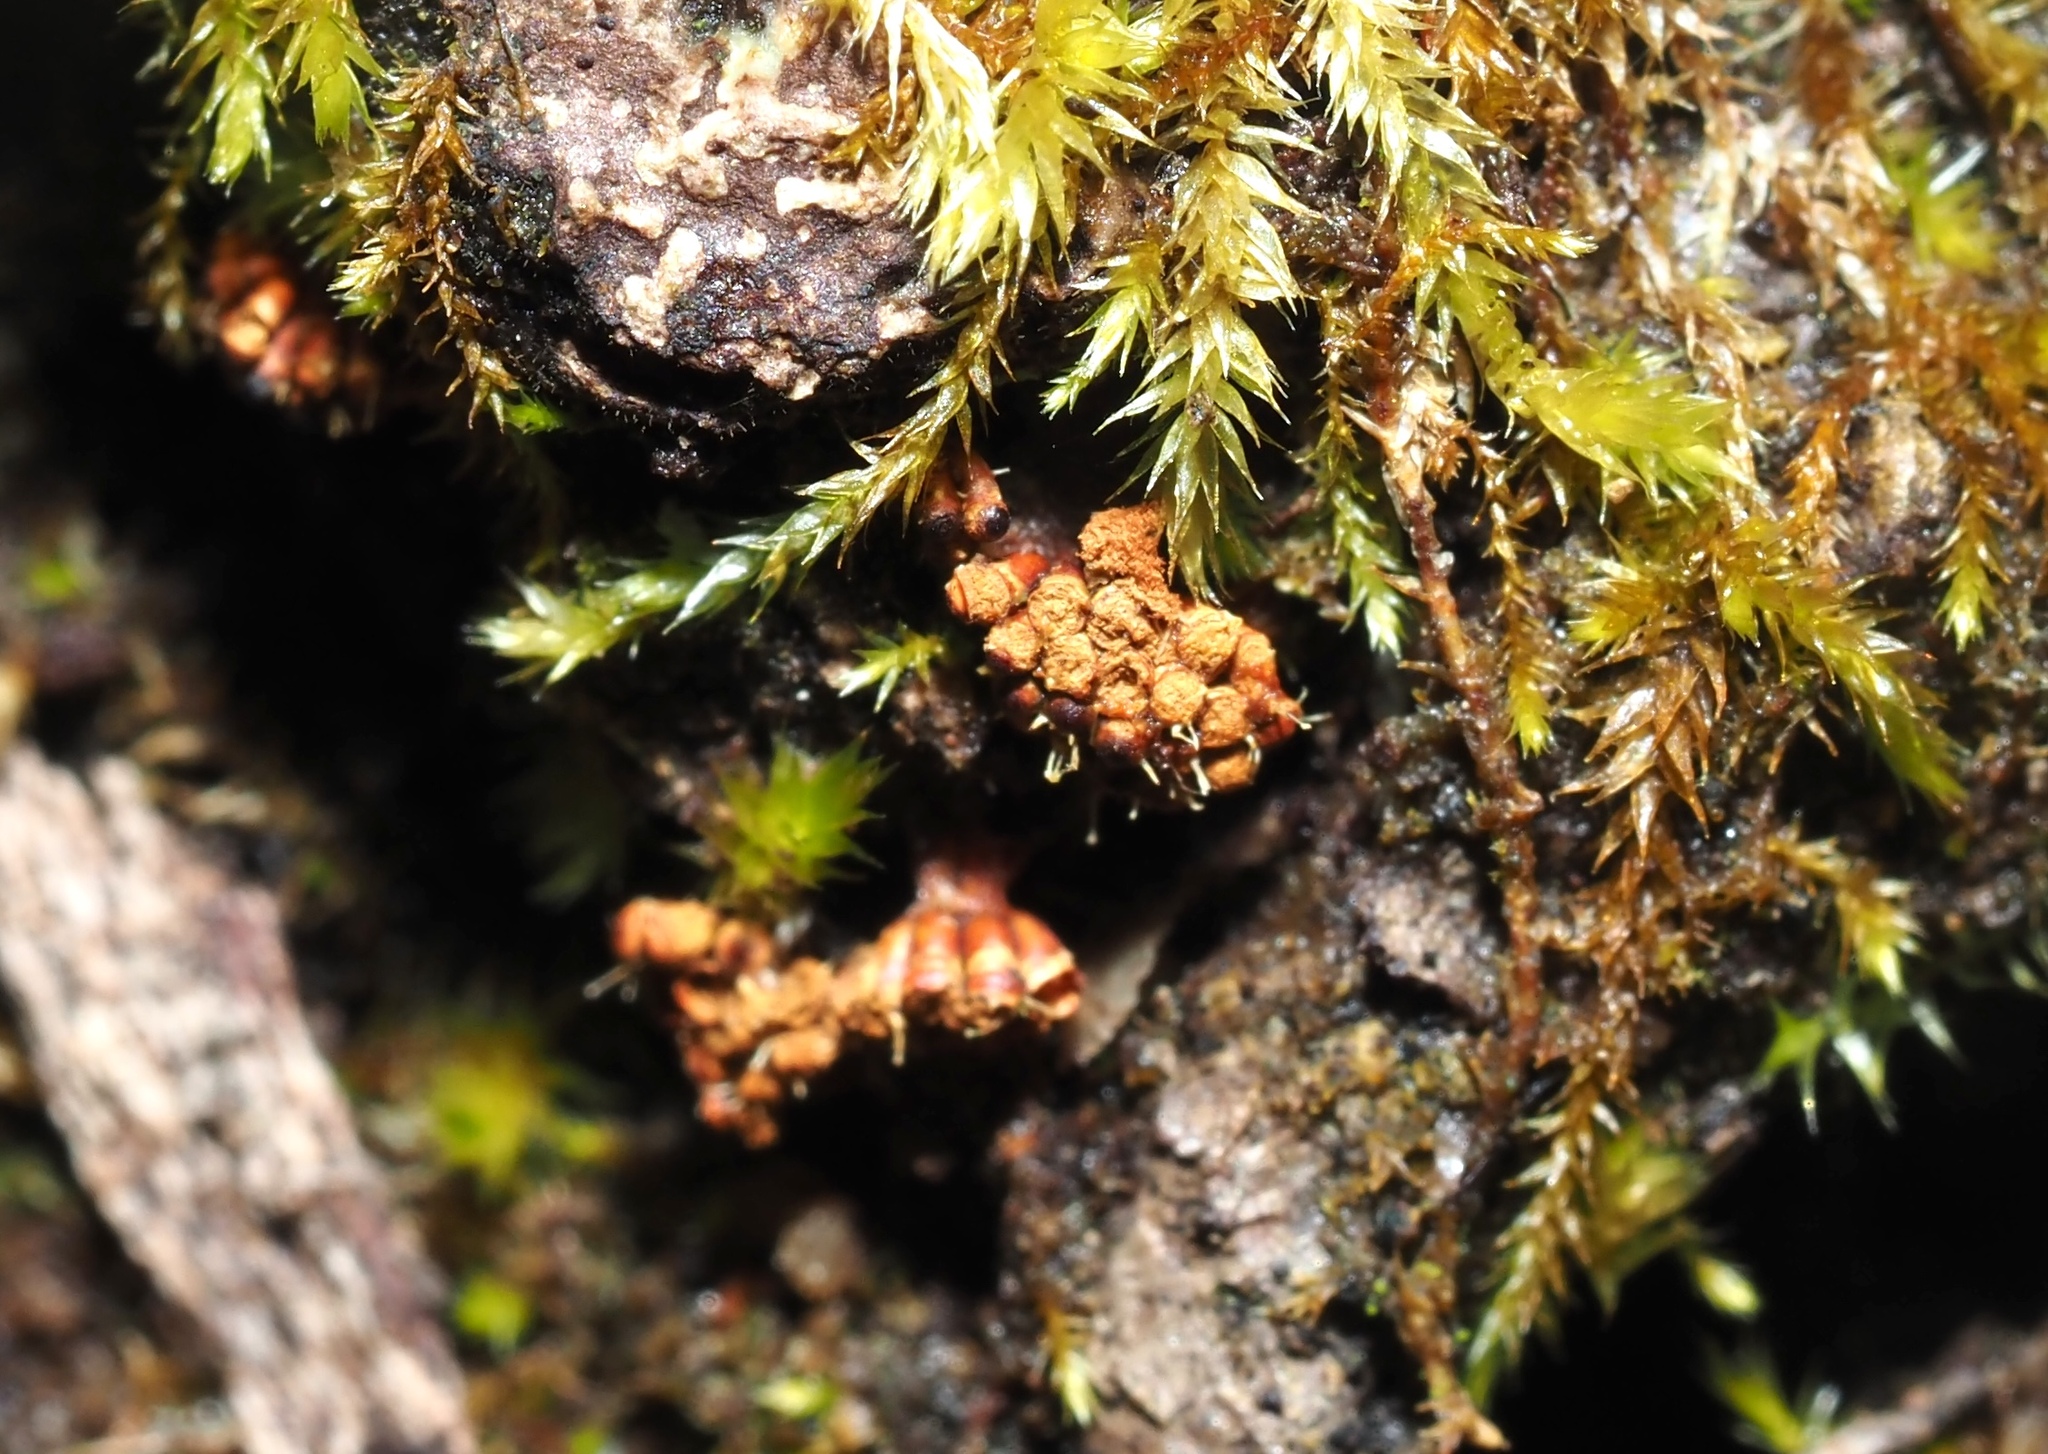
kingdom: Protozoa
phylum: Mycetozoa
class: Myxomycetes
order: Trichiales
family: Trichiaceae
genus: Metatrichia
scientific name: Metatrichia vesparia
